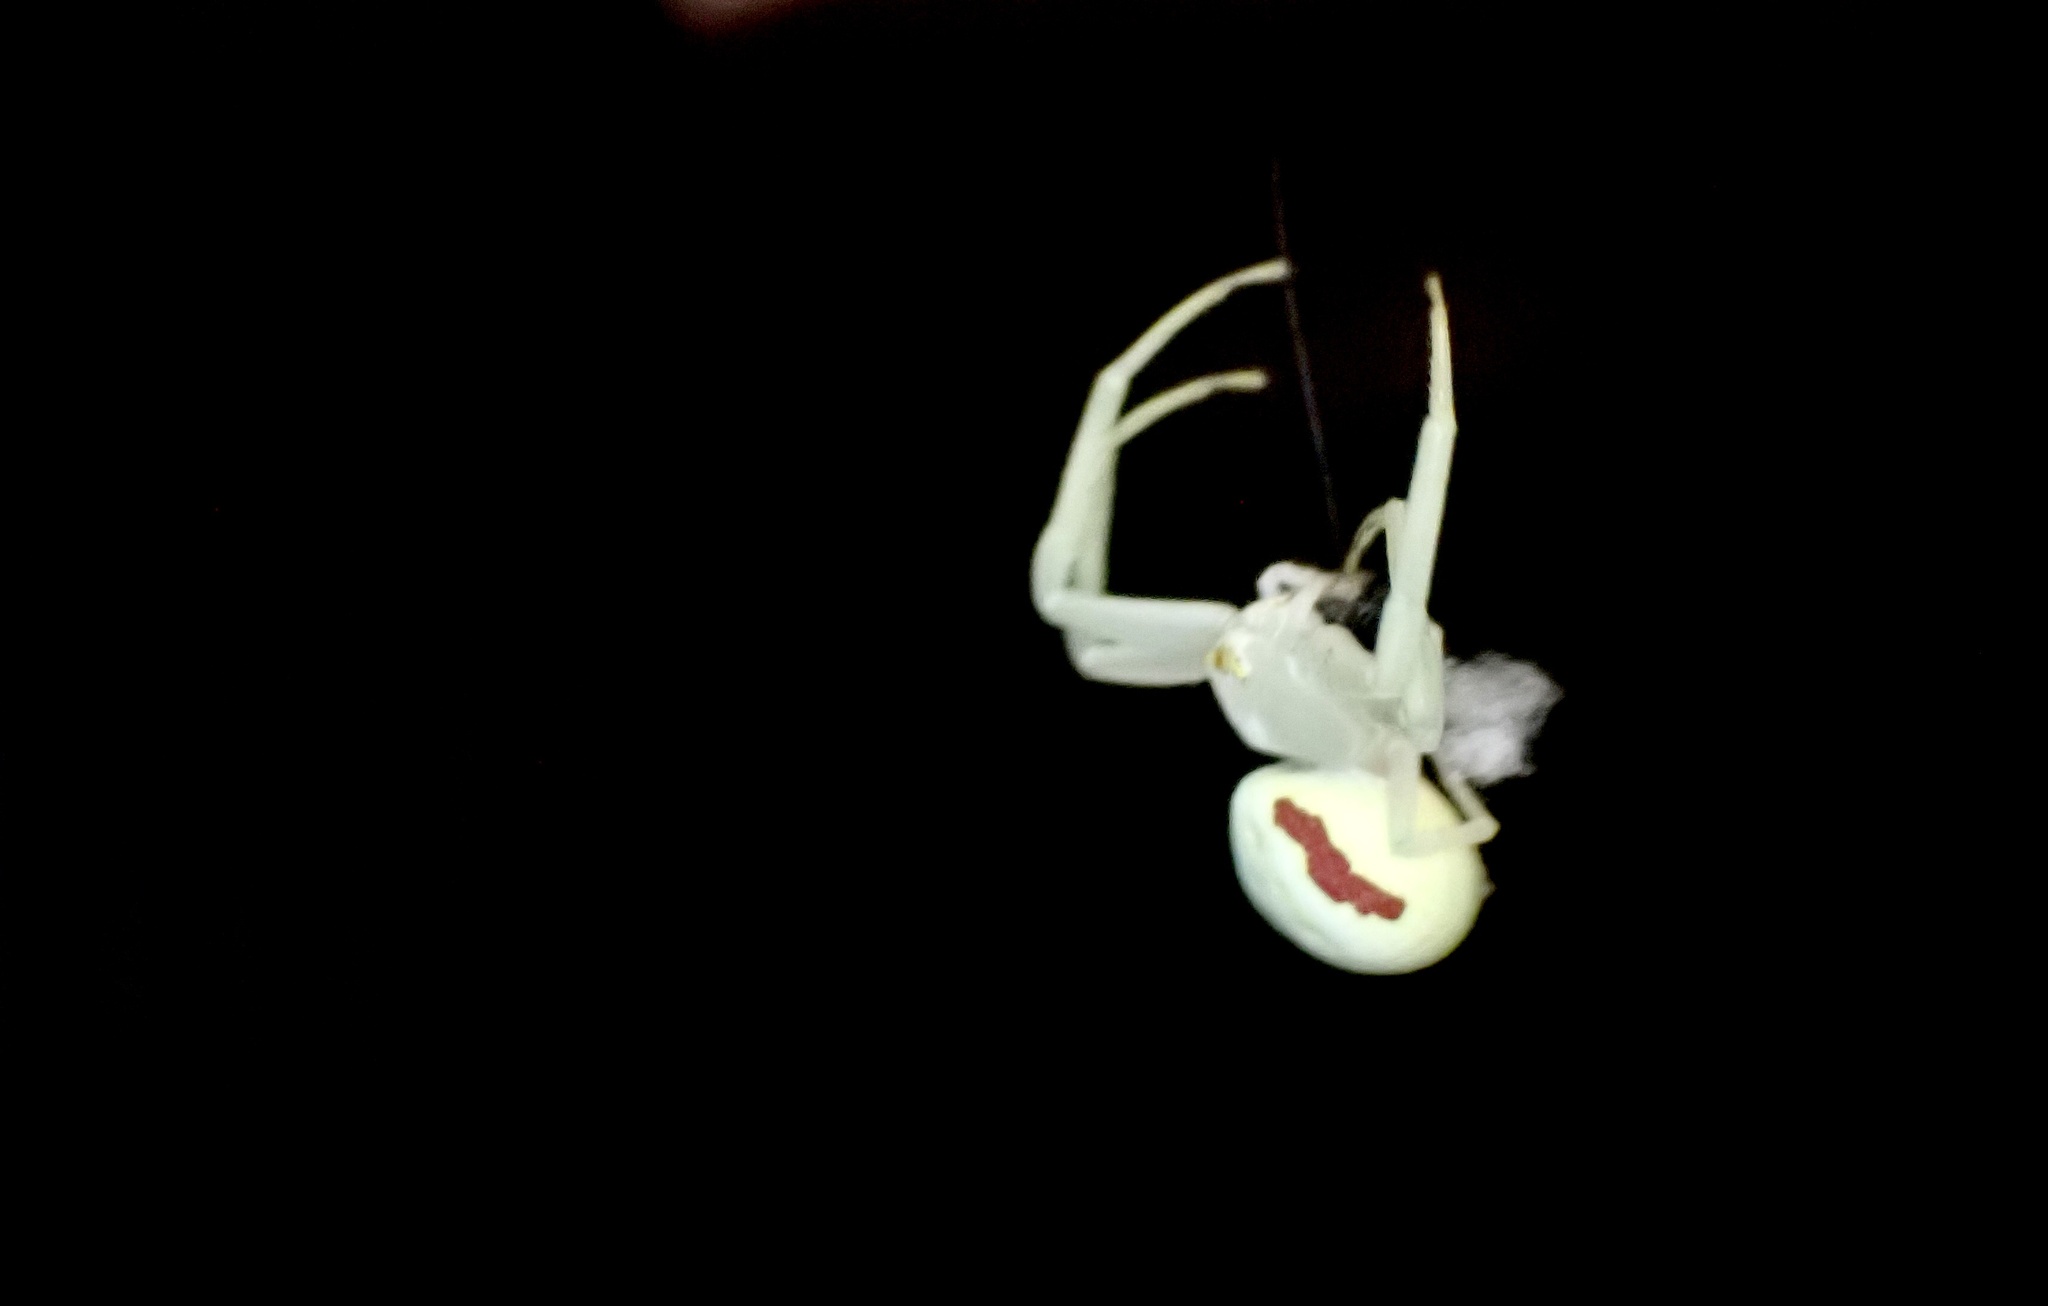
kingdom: Animalia
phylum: Arthropoda
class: Arachnida
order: Araneae
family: Thomisidae
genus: Misumena
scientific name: Misumena vatia
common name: Goldenrod crab spider
